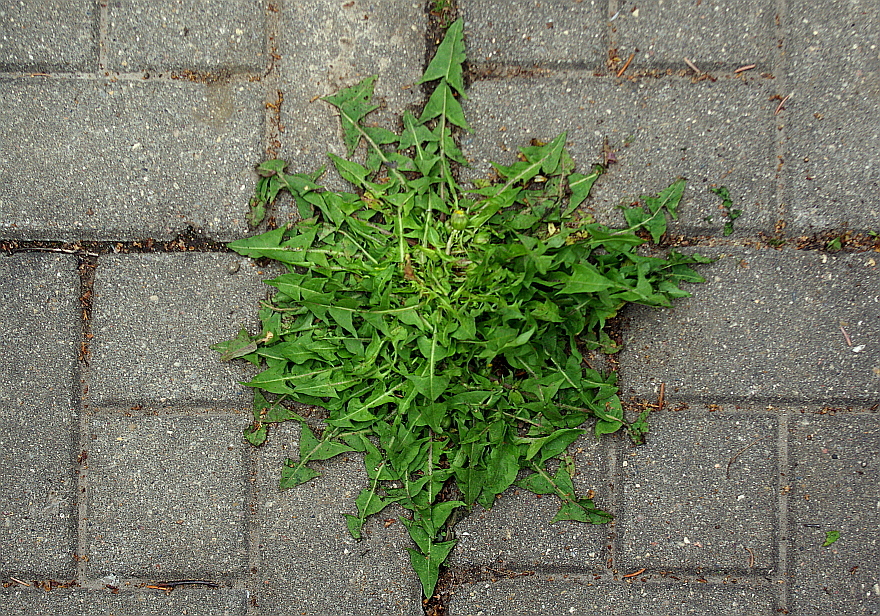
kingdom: Plantae
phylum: Tracheophyta
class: Magnoliopsida
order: Asterales
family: Asteraceae
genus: Taraxacum
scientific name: Taraxacum officinale
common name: Common dandelion
